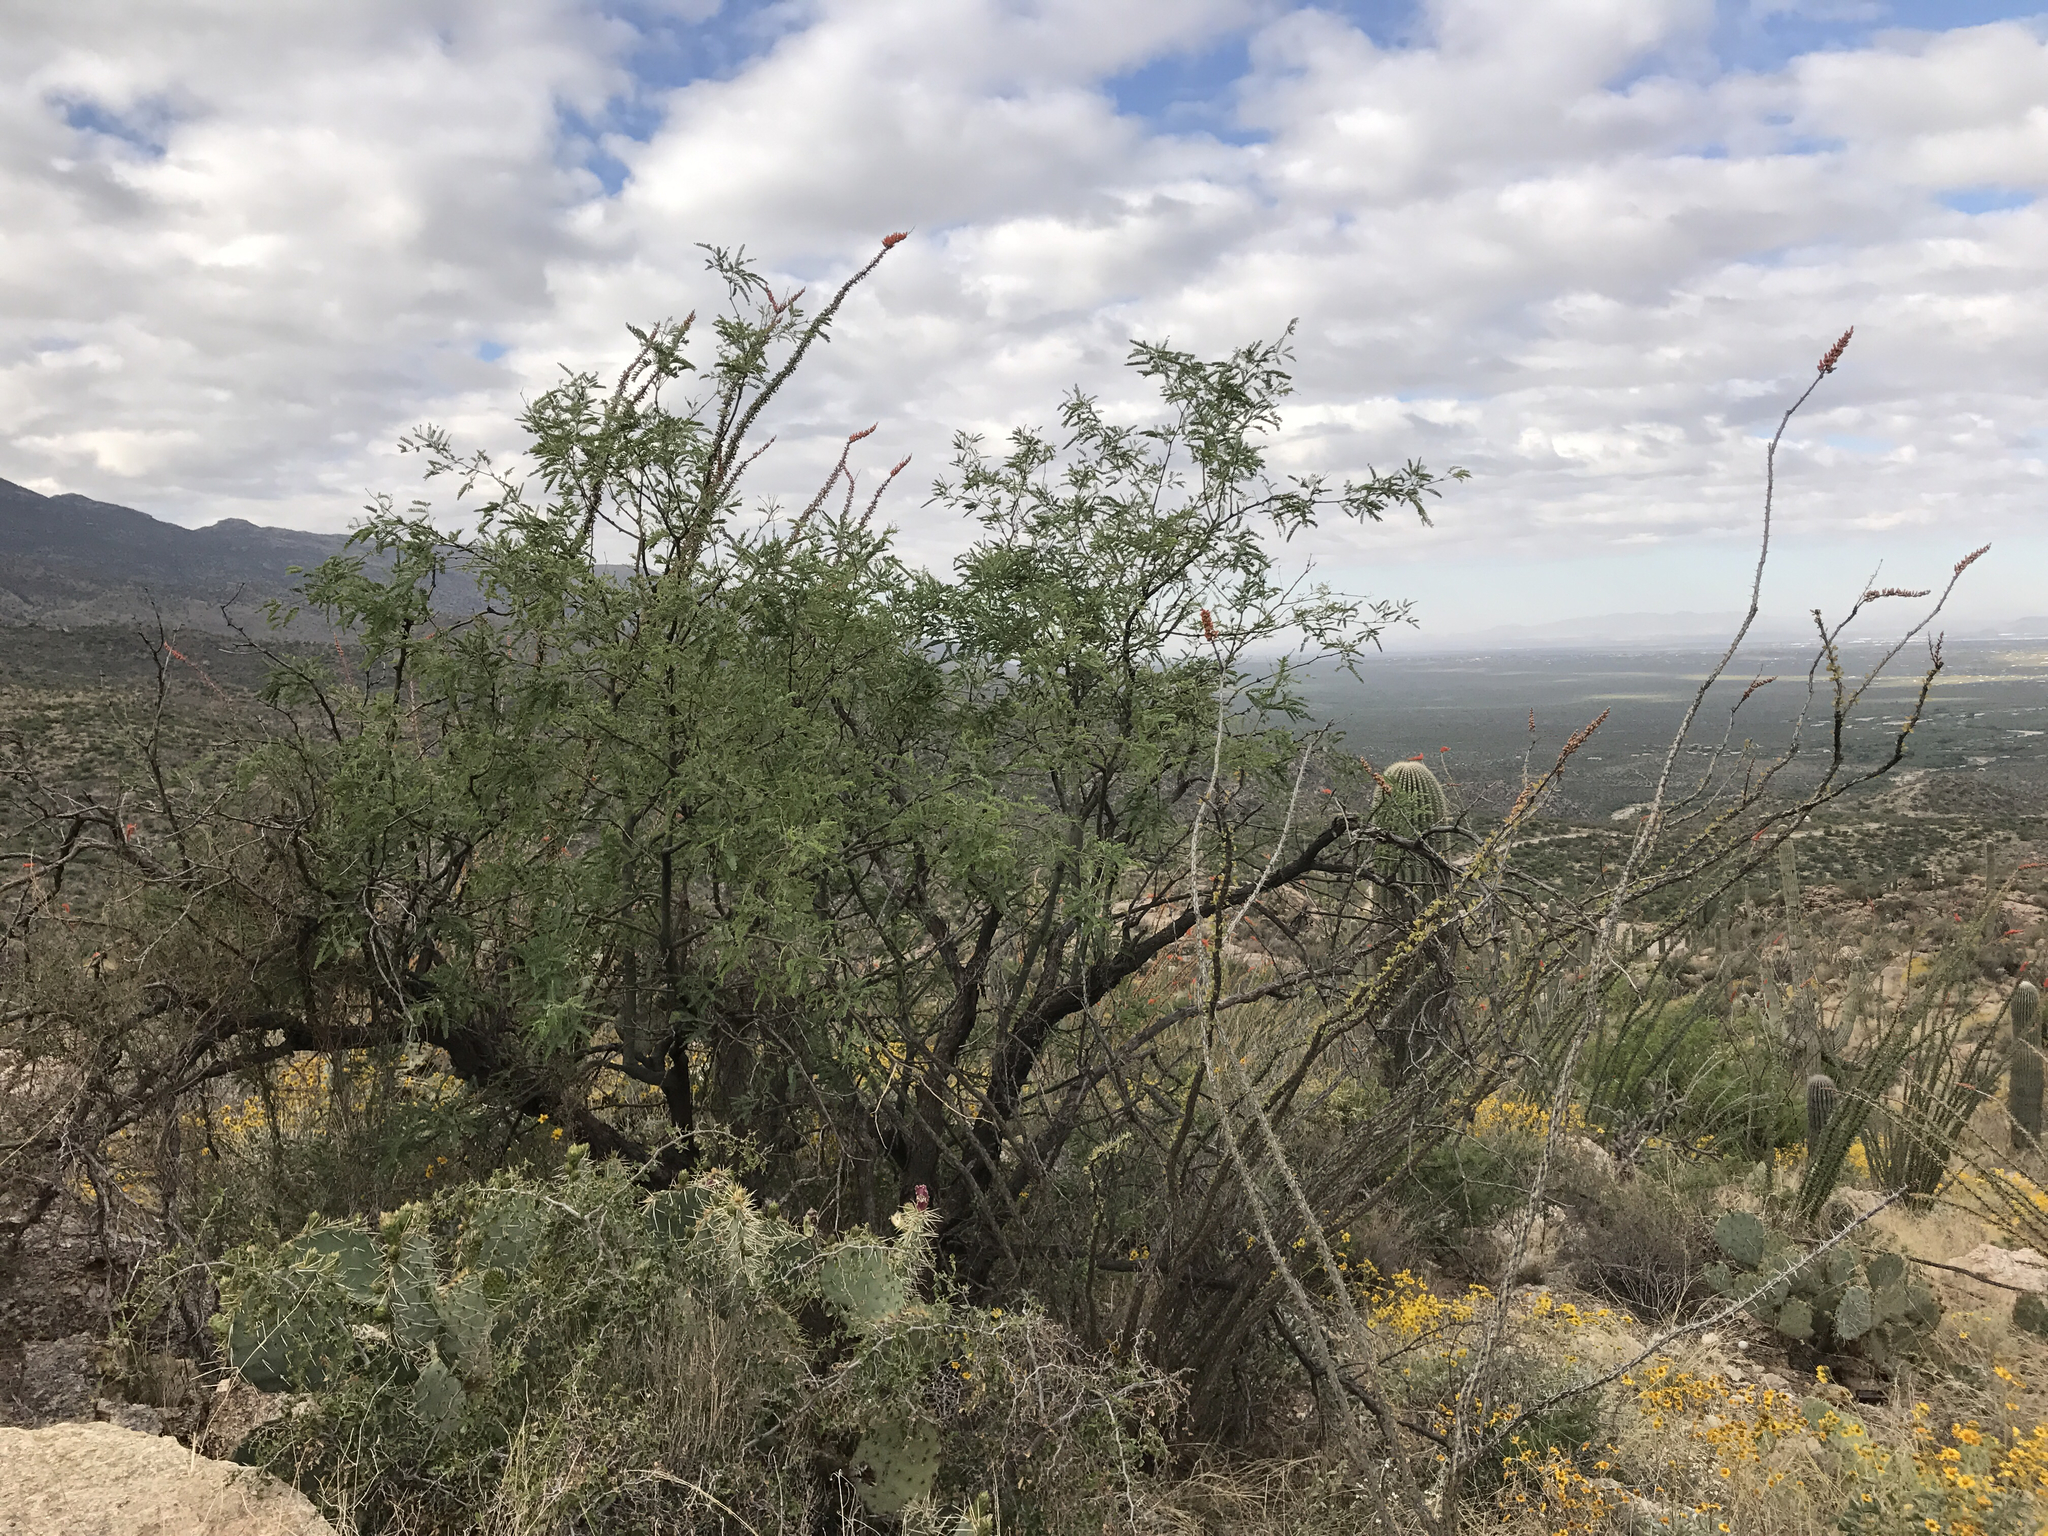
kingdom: Plantae
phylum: Tracheophyta
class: Magnoliopsida
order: Fabales
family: Fabaceae
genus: Prosopis
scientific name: Prosopis velutina
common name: Velvet mesquite
